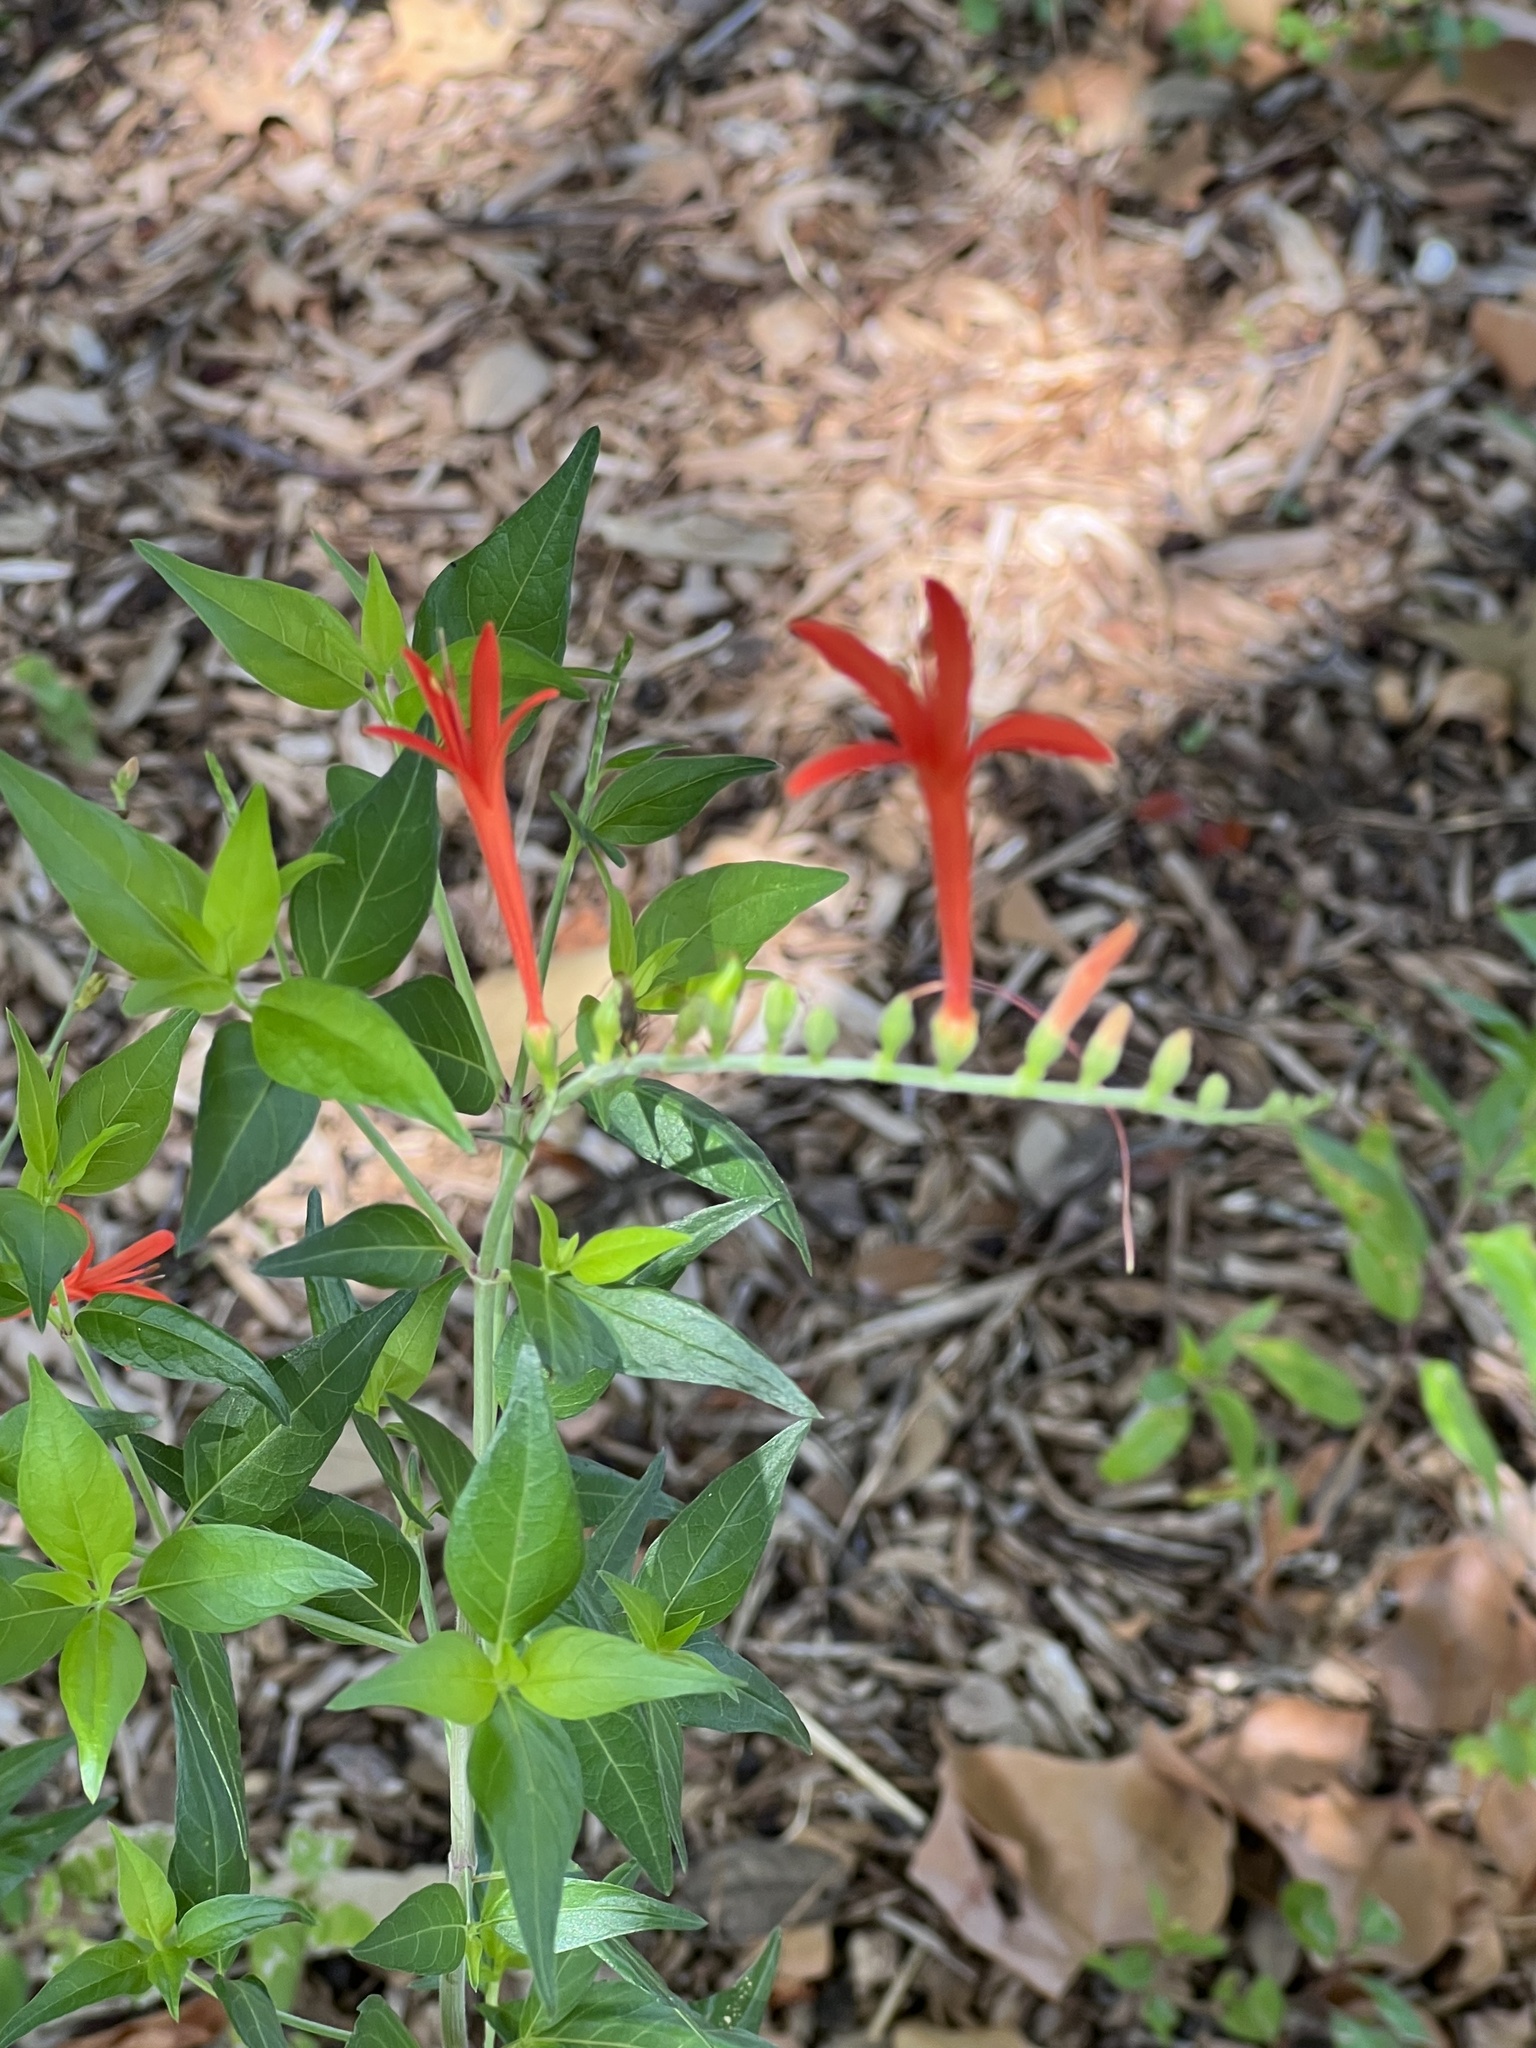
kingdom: Plantae
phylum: Tracheophyta
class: Magnoliopsida
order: Lamiales
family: Acanthaceae
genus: Anisacanthus
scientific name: Anisacanthus quadrifidus
